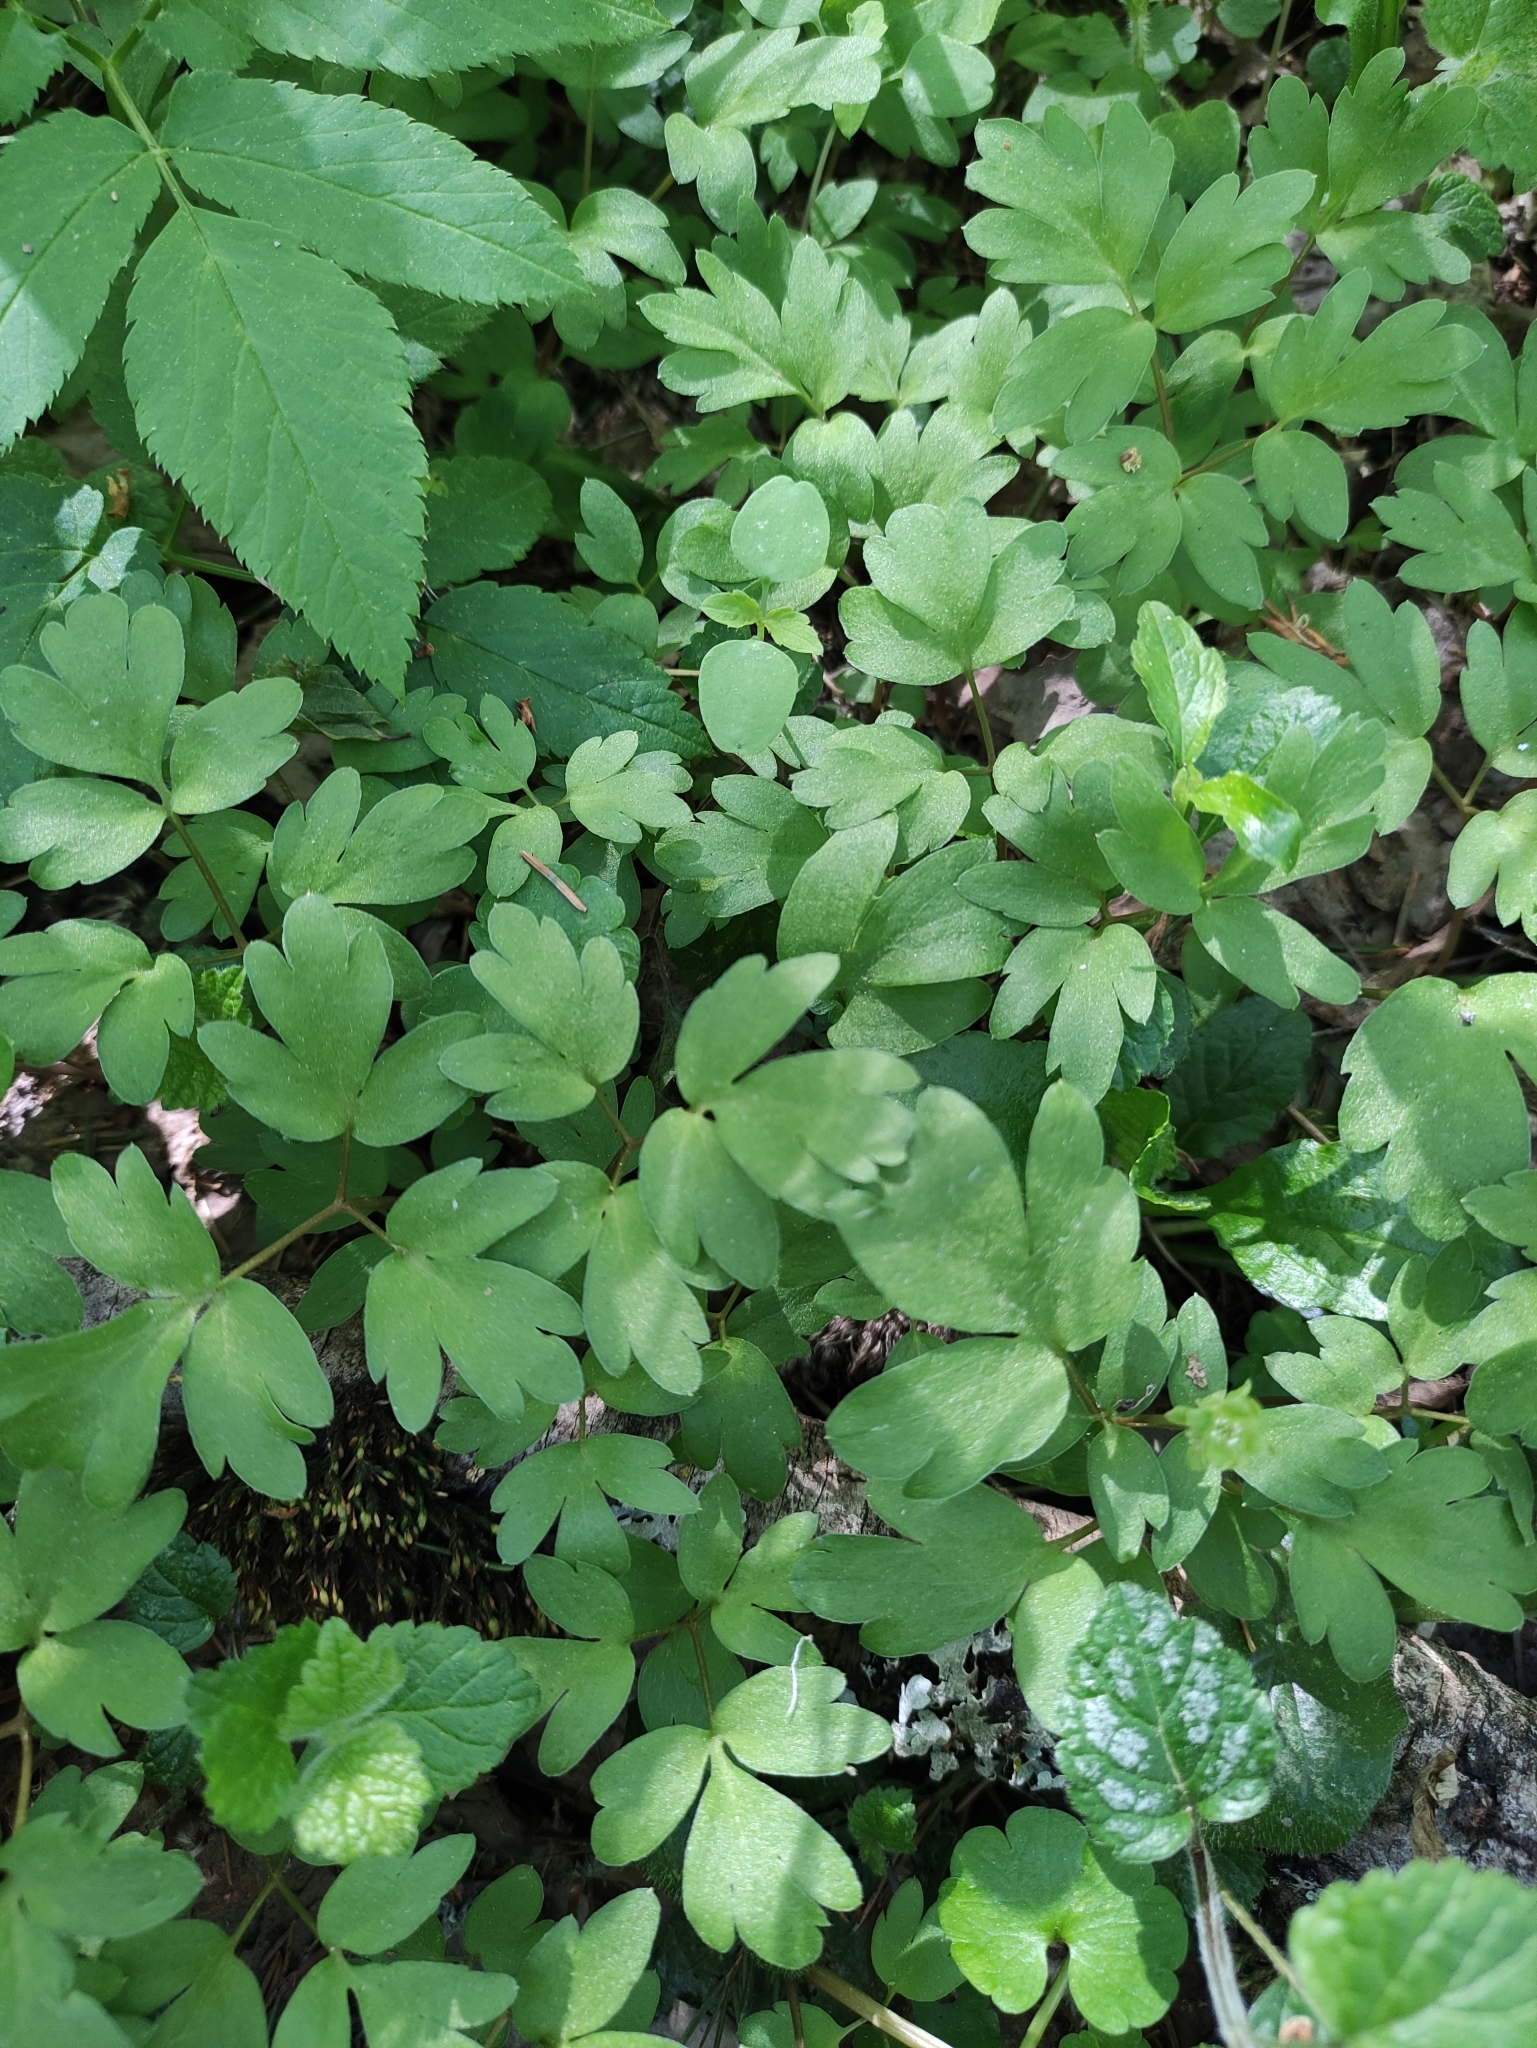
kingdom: Plantae
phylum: Tracheophyta
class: Magnoliopsida
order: Dipsacales
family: Viburnaceae
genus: Adoxa
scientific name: Adoxa moschatellina
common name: Moschatel
